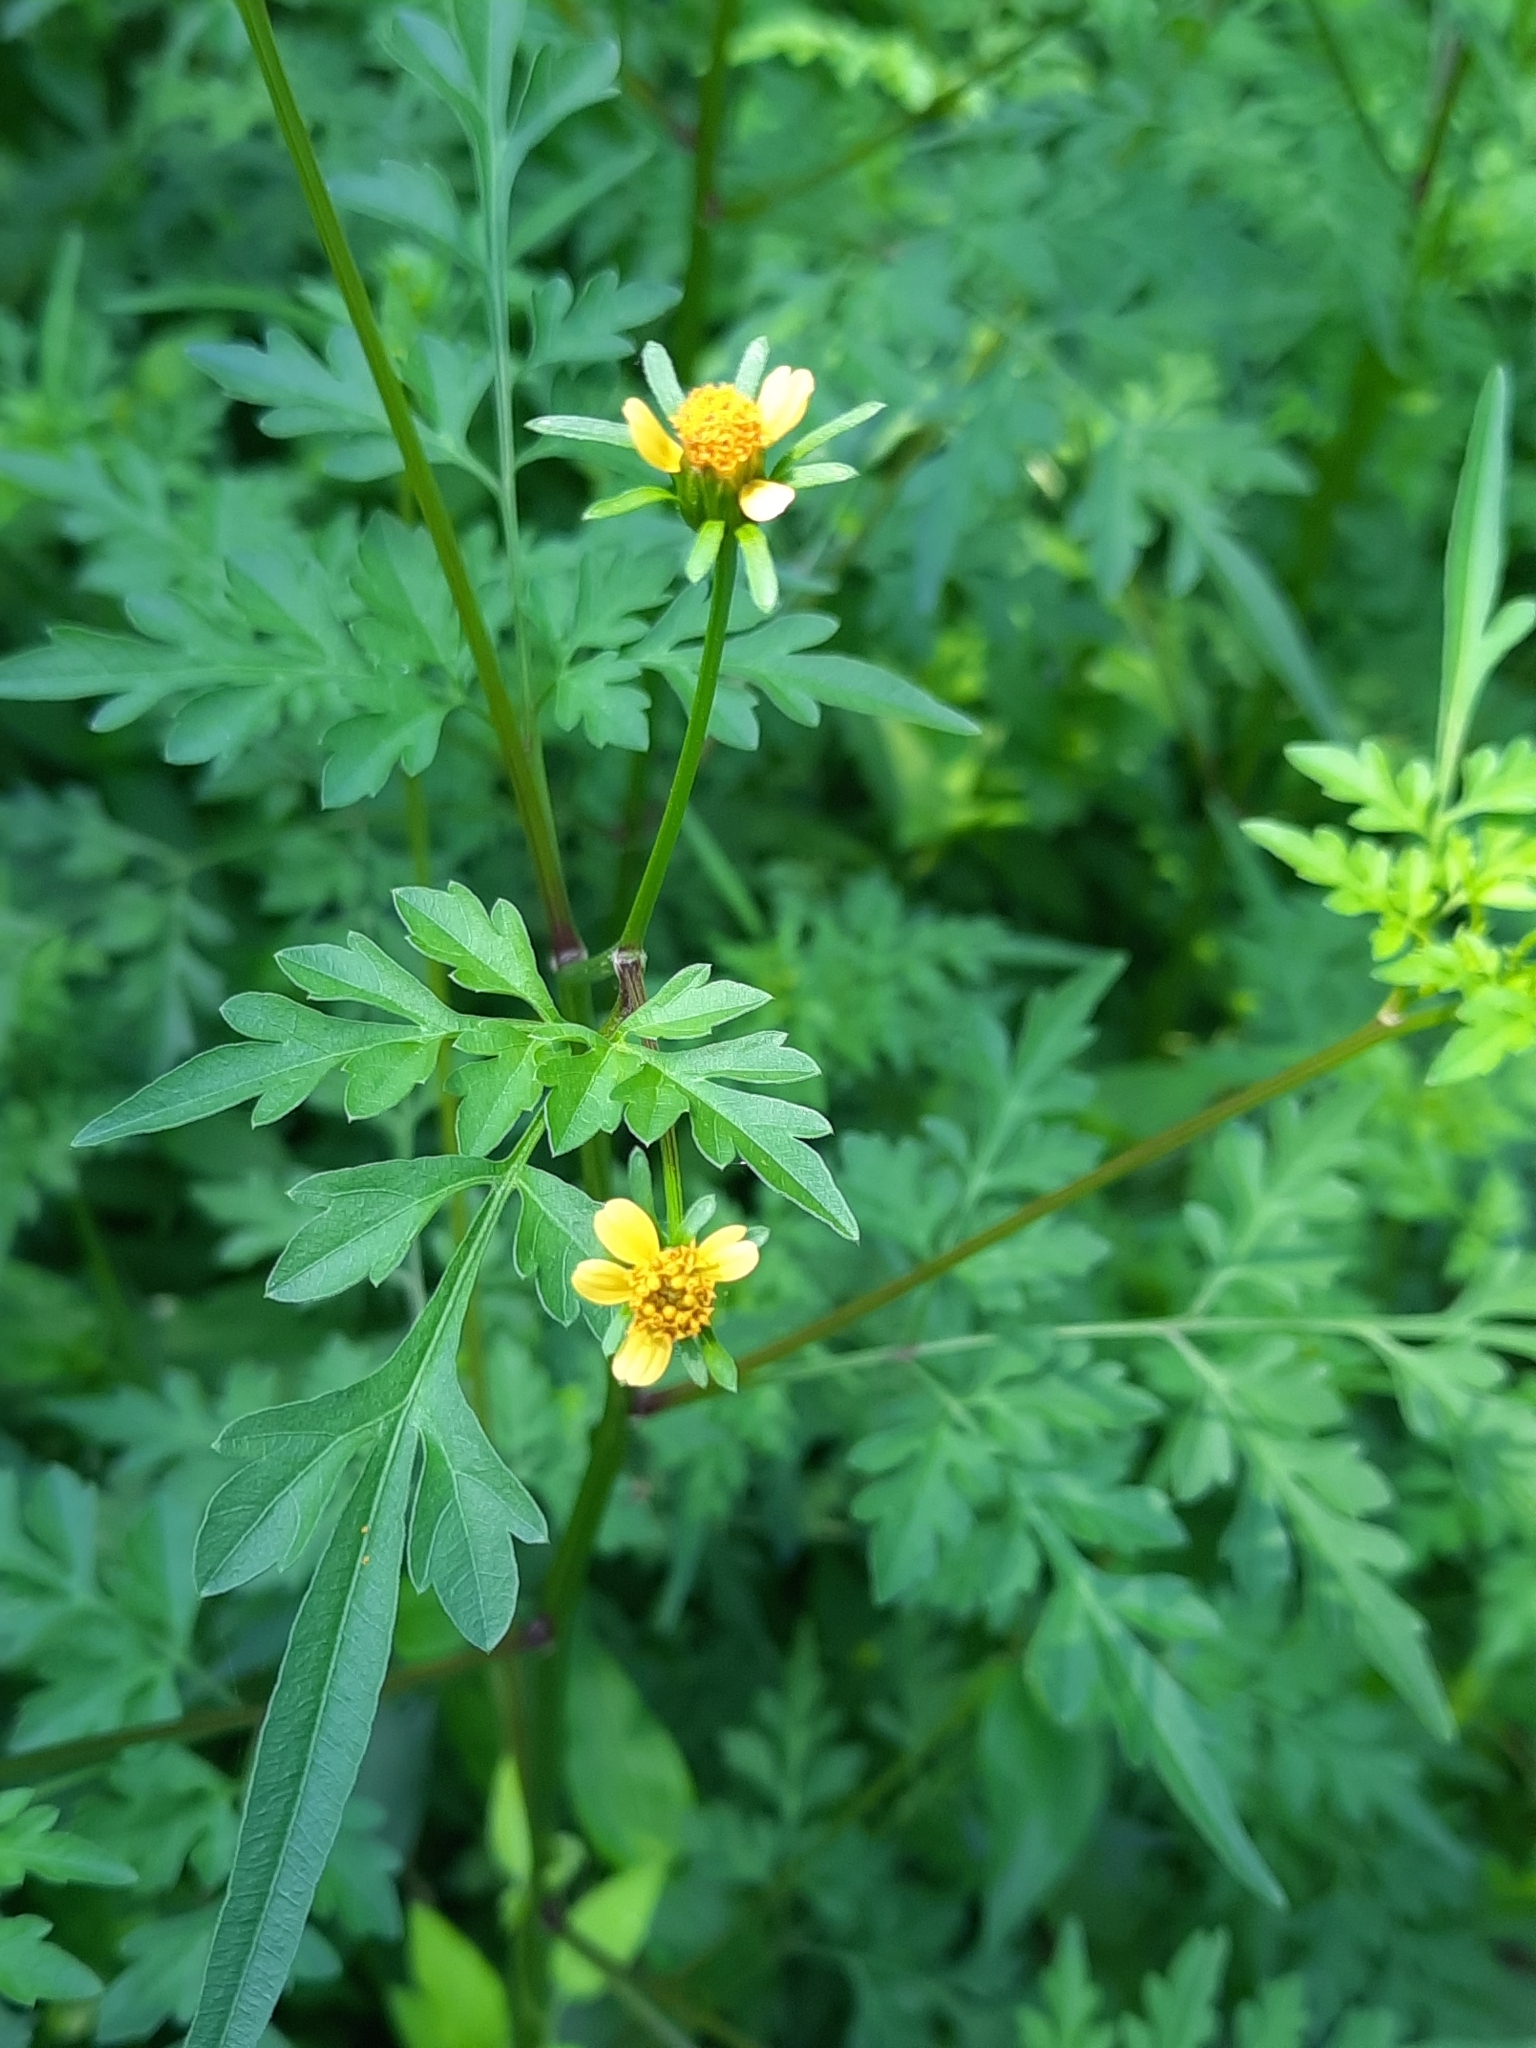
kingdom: Plantae
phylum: Tracheophyta
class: Magnoliopsida
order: Asterales
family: Asteraceae
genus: Bidens
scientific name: Bidens bipinnata
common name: Spanish-needles
